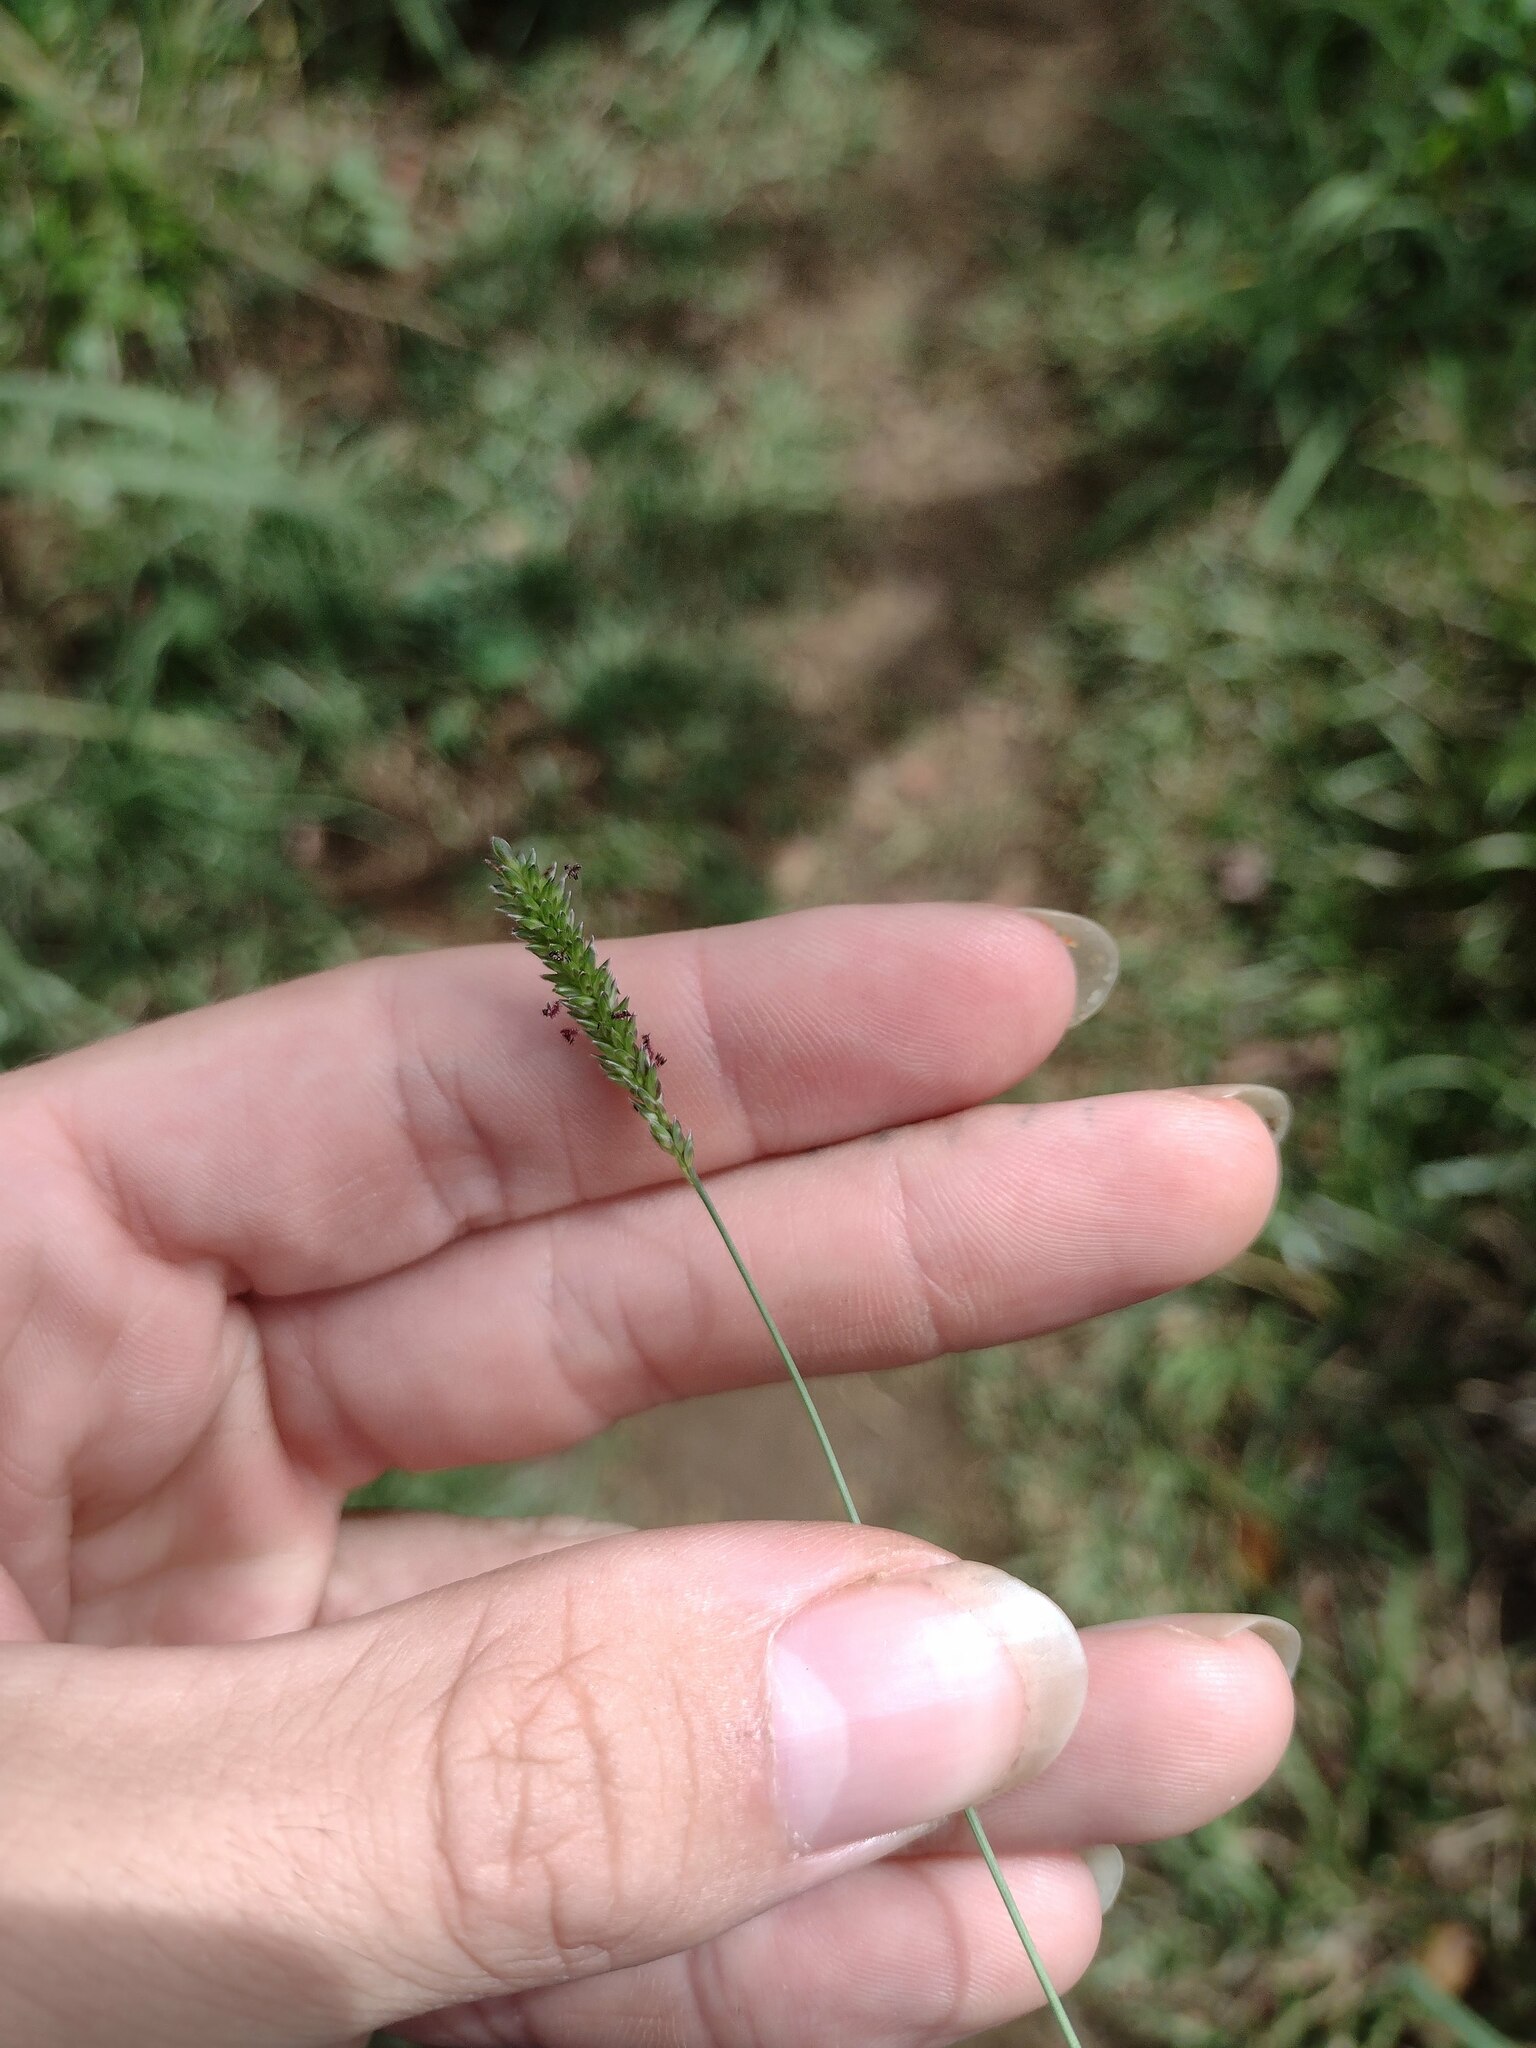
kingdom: Plantae
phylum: Tracheophyta
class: Liliopsida
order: Poales
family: Poaceae
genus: Sacciolepis
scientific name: Sacciolepis indica
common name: Glenwoodgrass
